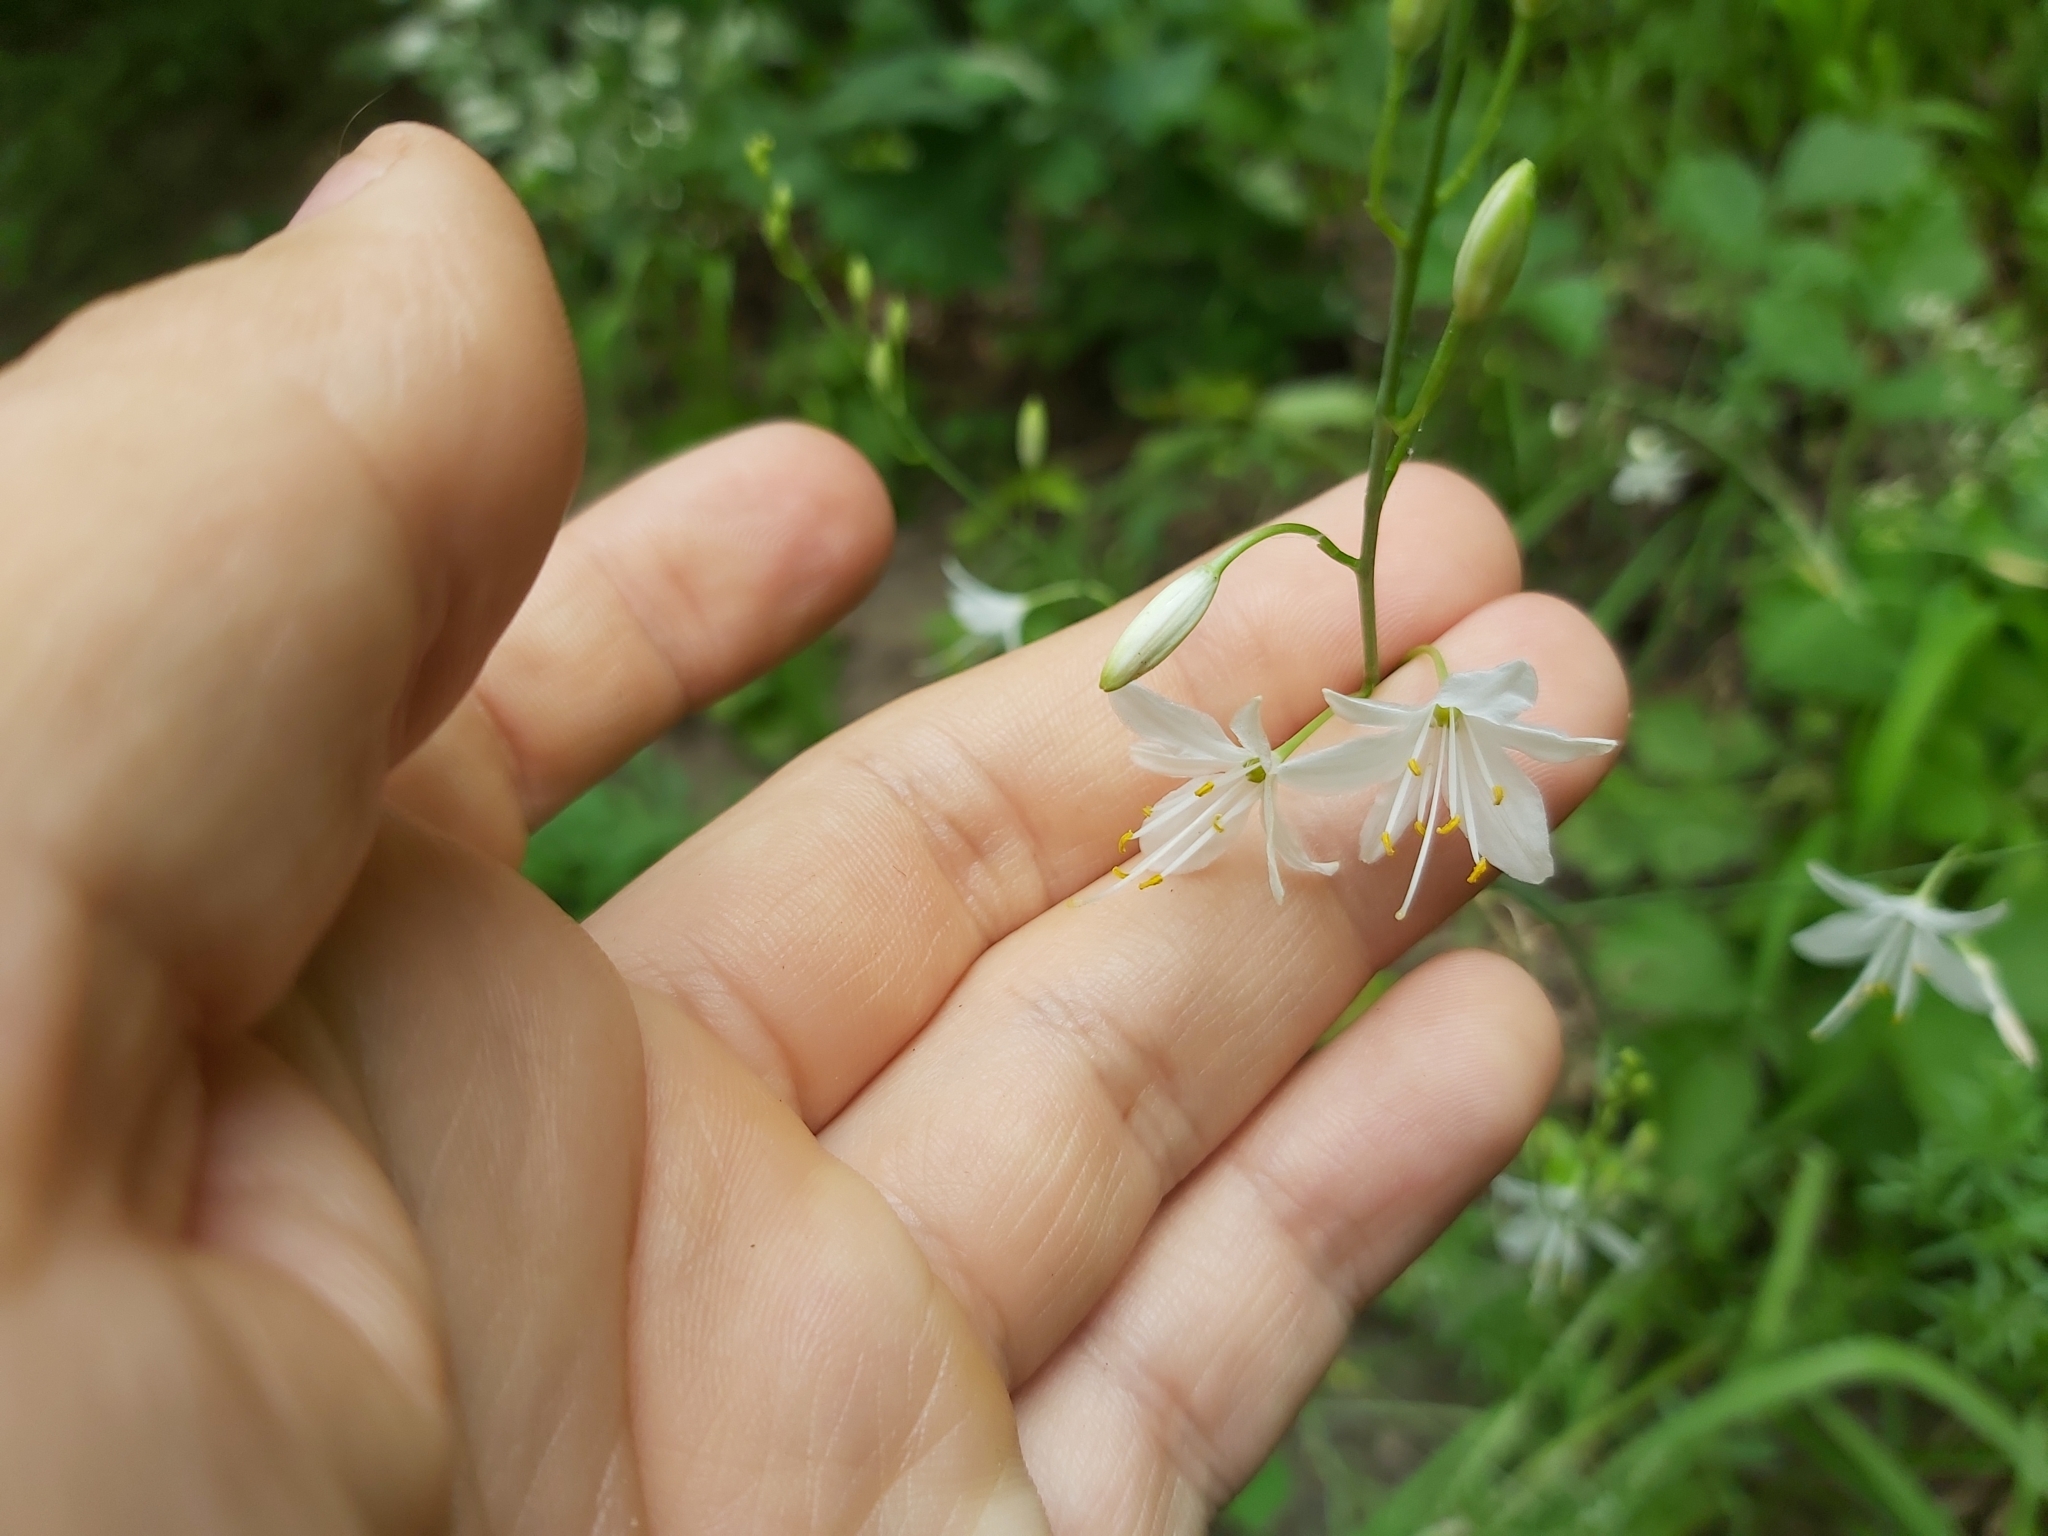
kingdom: Plantae
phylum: Tracheophyta
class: Liliopsida
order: Asparagales
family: Asparagaceae
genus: Anthericum
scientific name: Anthericum ramosum
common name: Branched st. bernard's-lily
